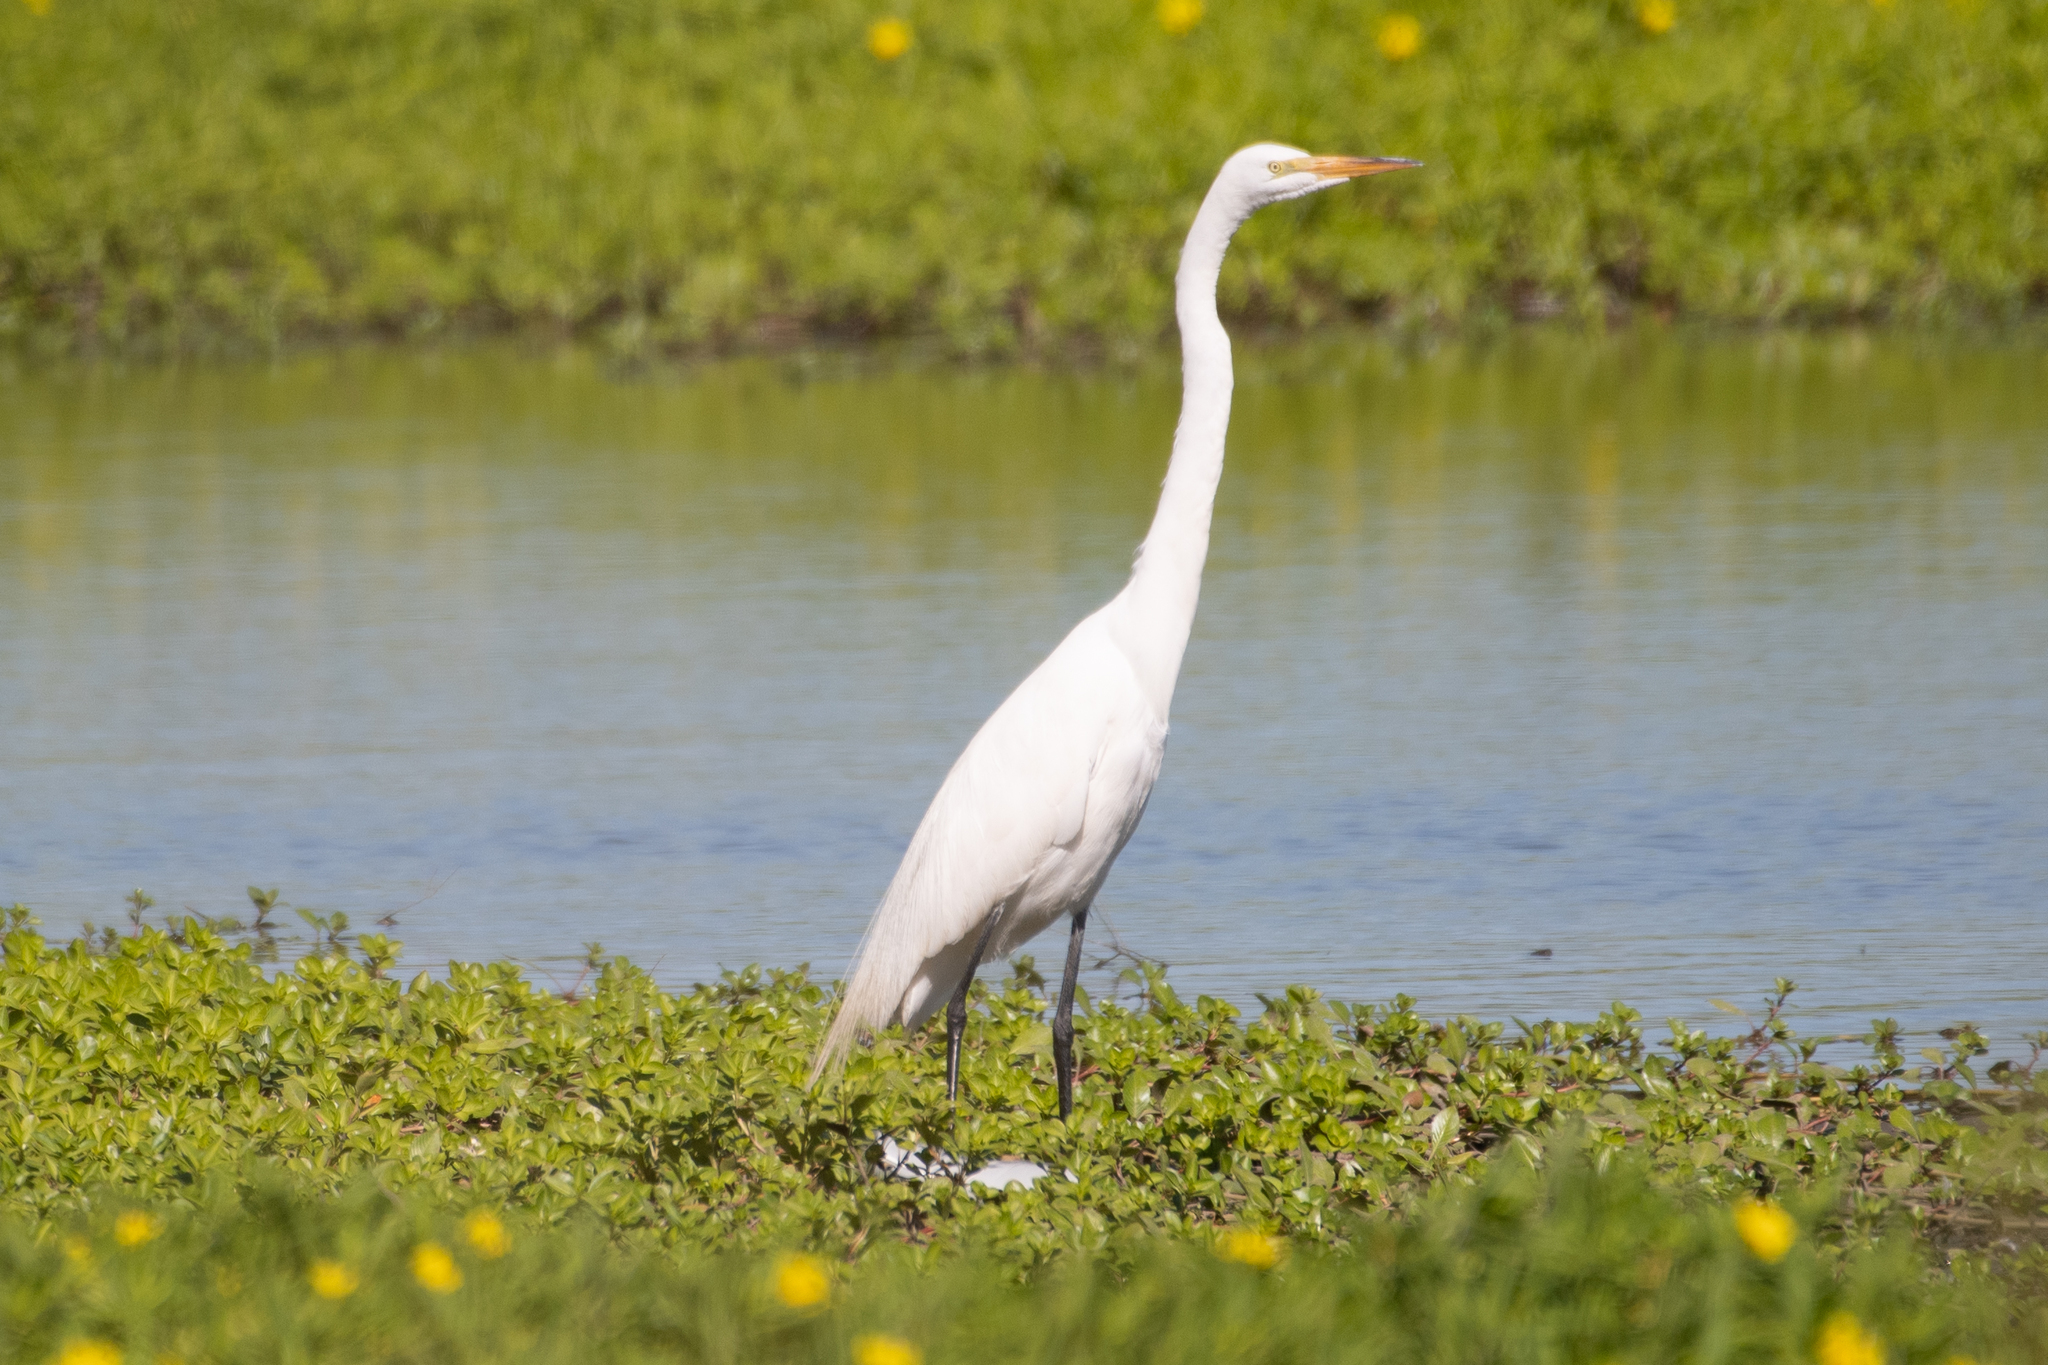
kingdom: Animalia
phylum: Chordata
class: Aves
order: Pelecaniformes
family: Ardeidae
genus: Ardea
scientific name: Ardea alba
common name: Great egret
